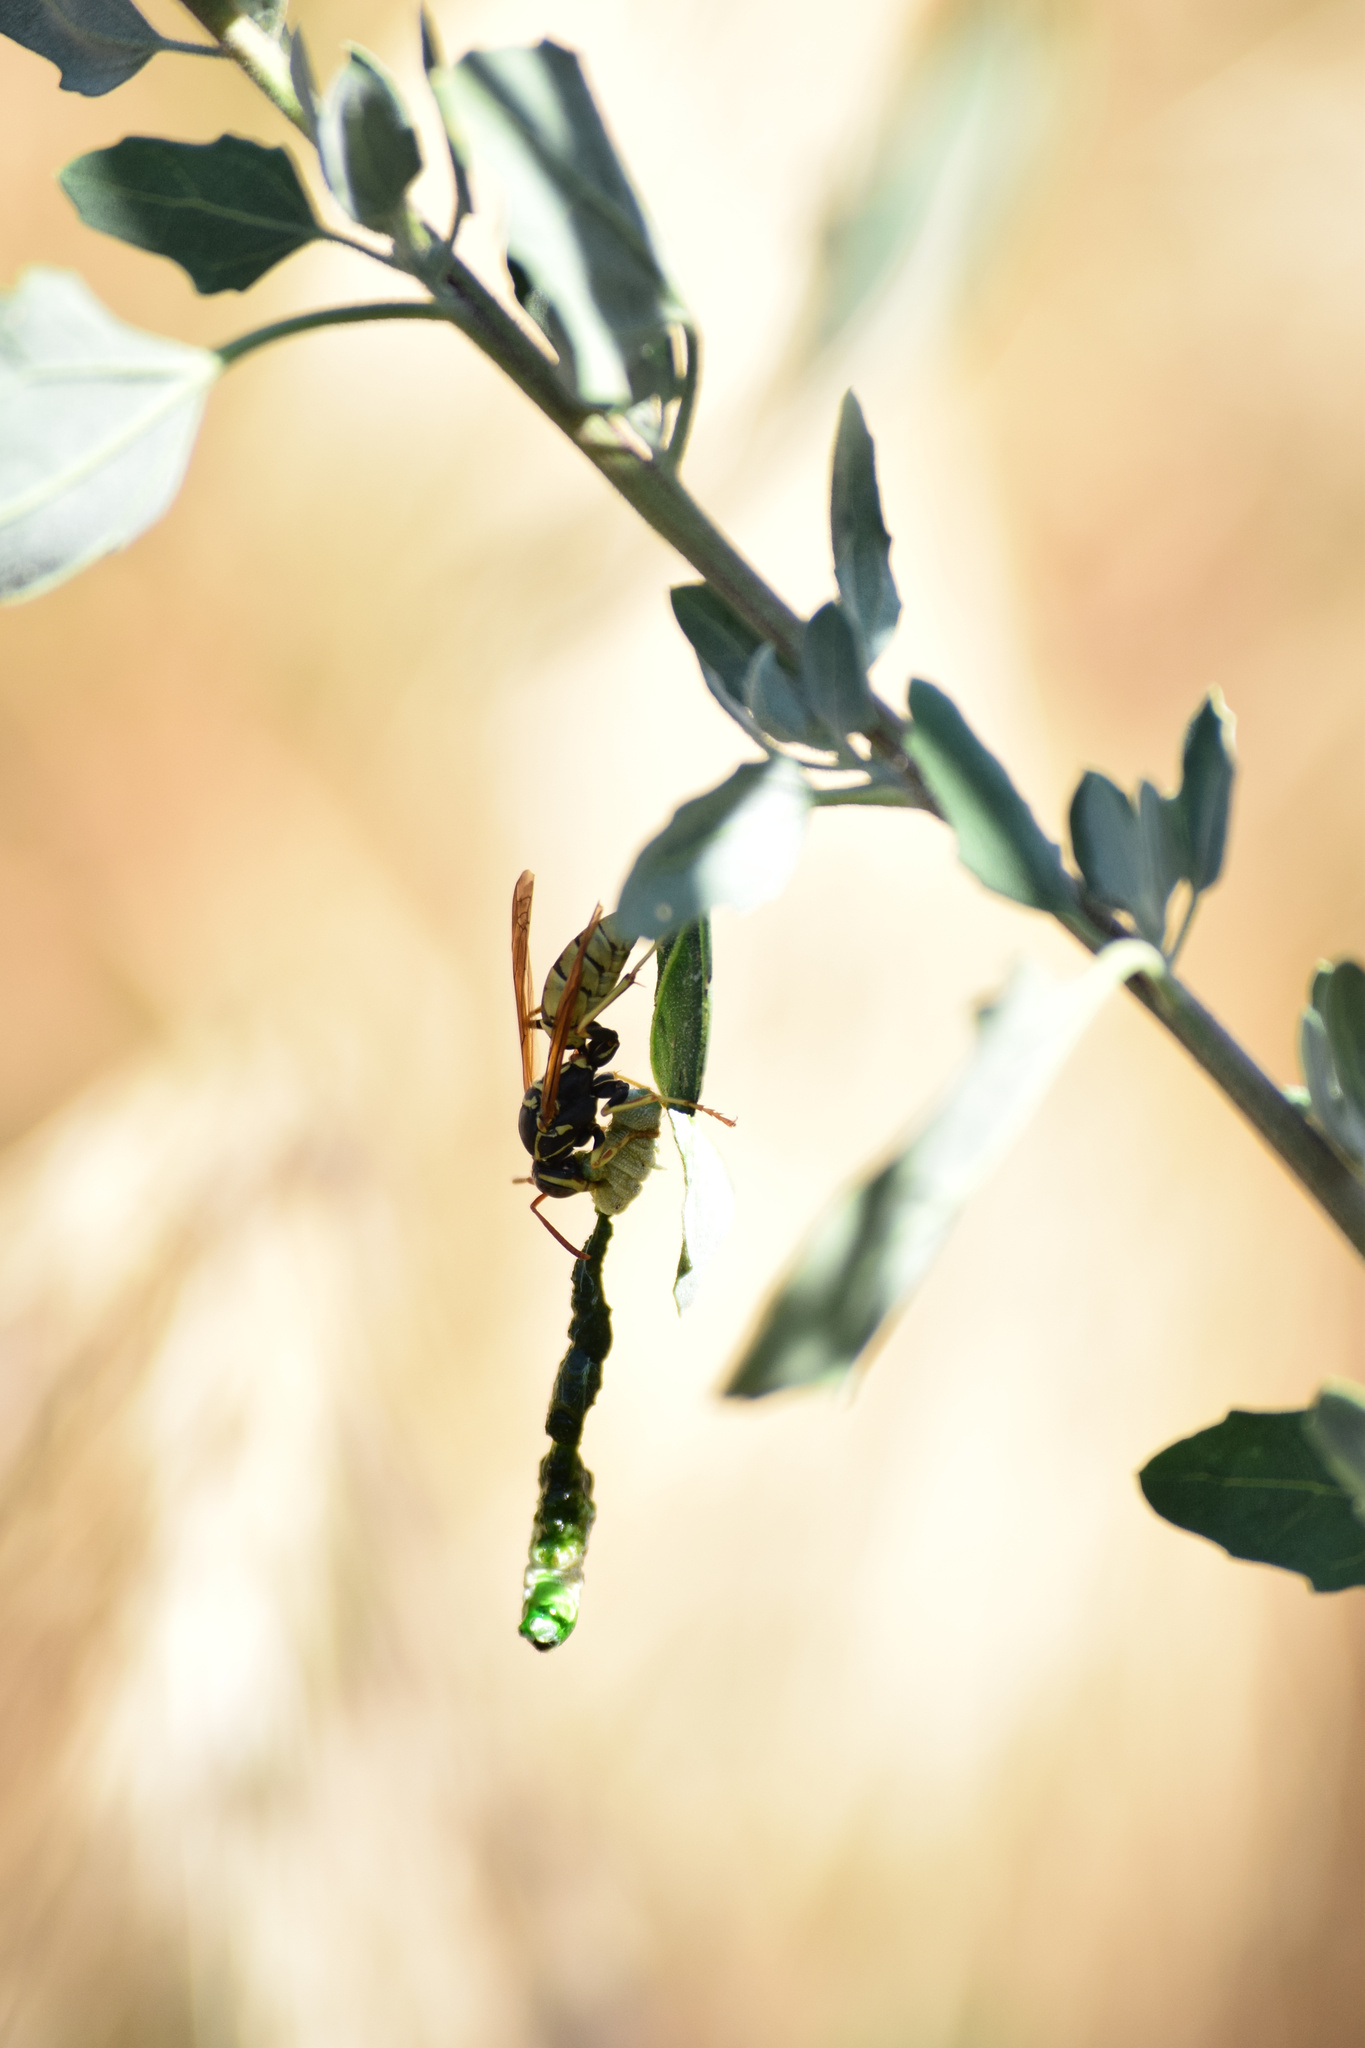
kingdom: Animalia
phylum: Arthropoda
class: Insecta
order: Hymenoptera
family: Eumenidae
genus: Polistes
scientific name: Polistes aurifer
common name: Paper wasp
